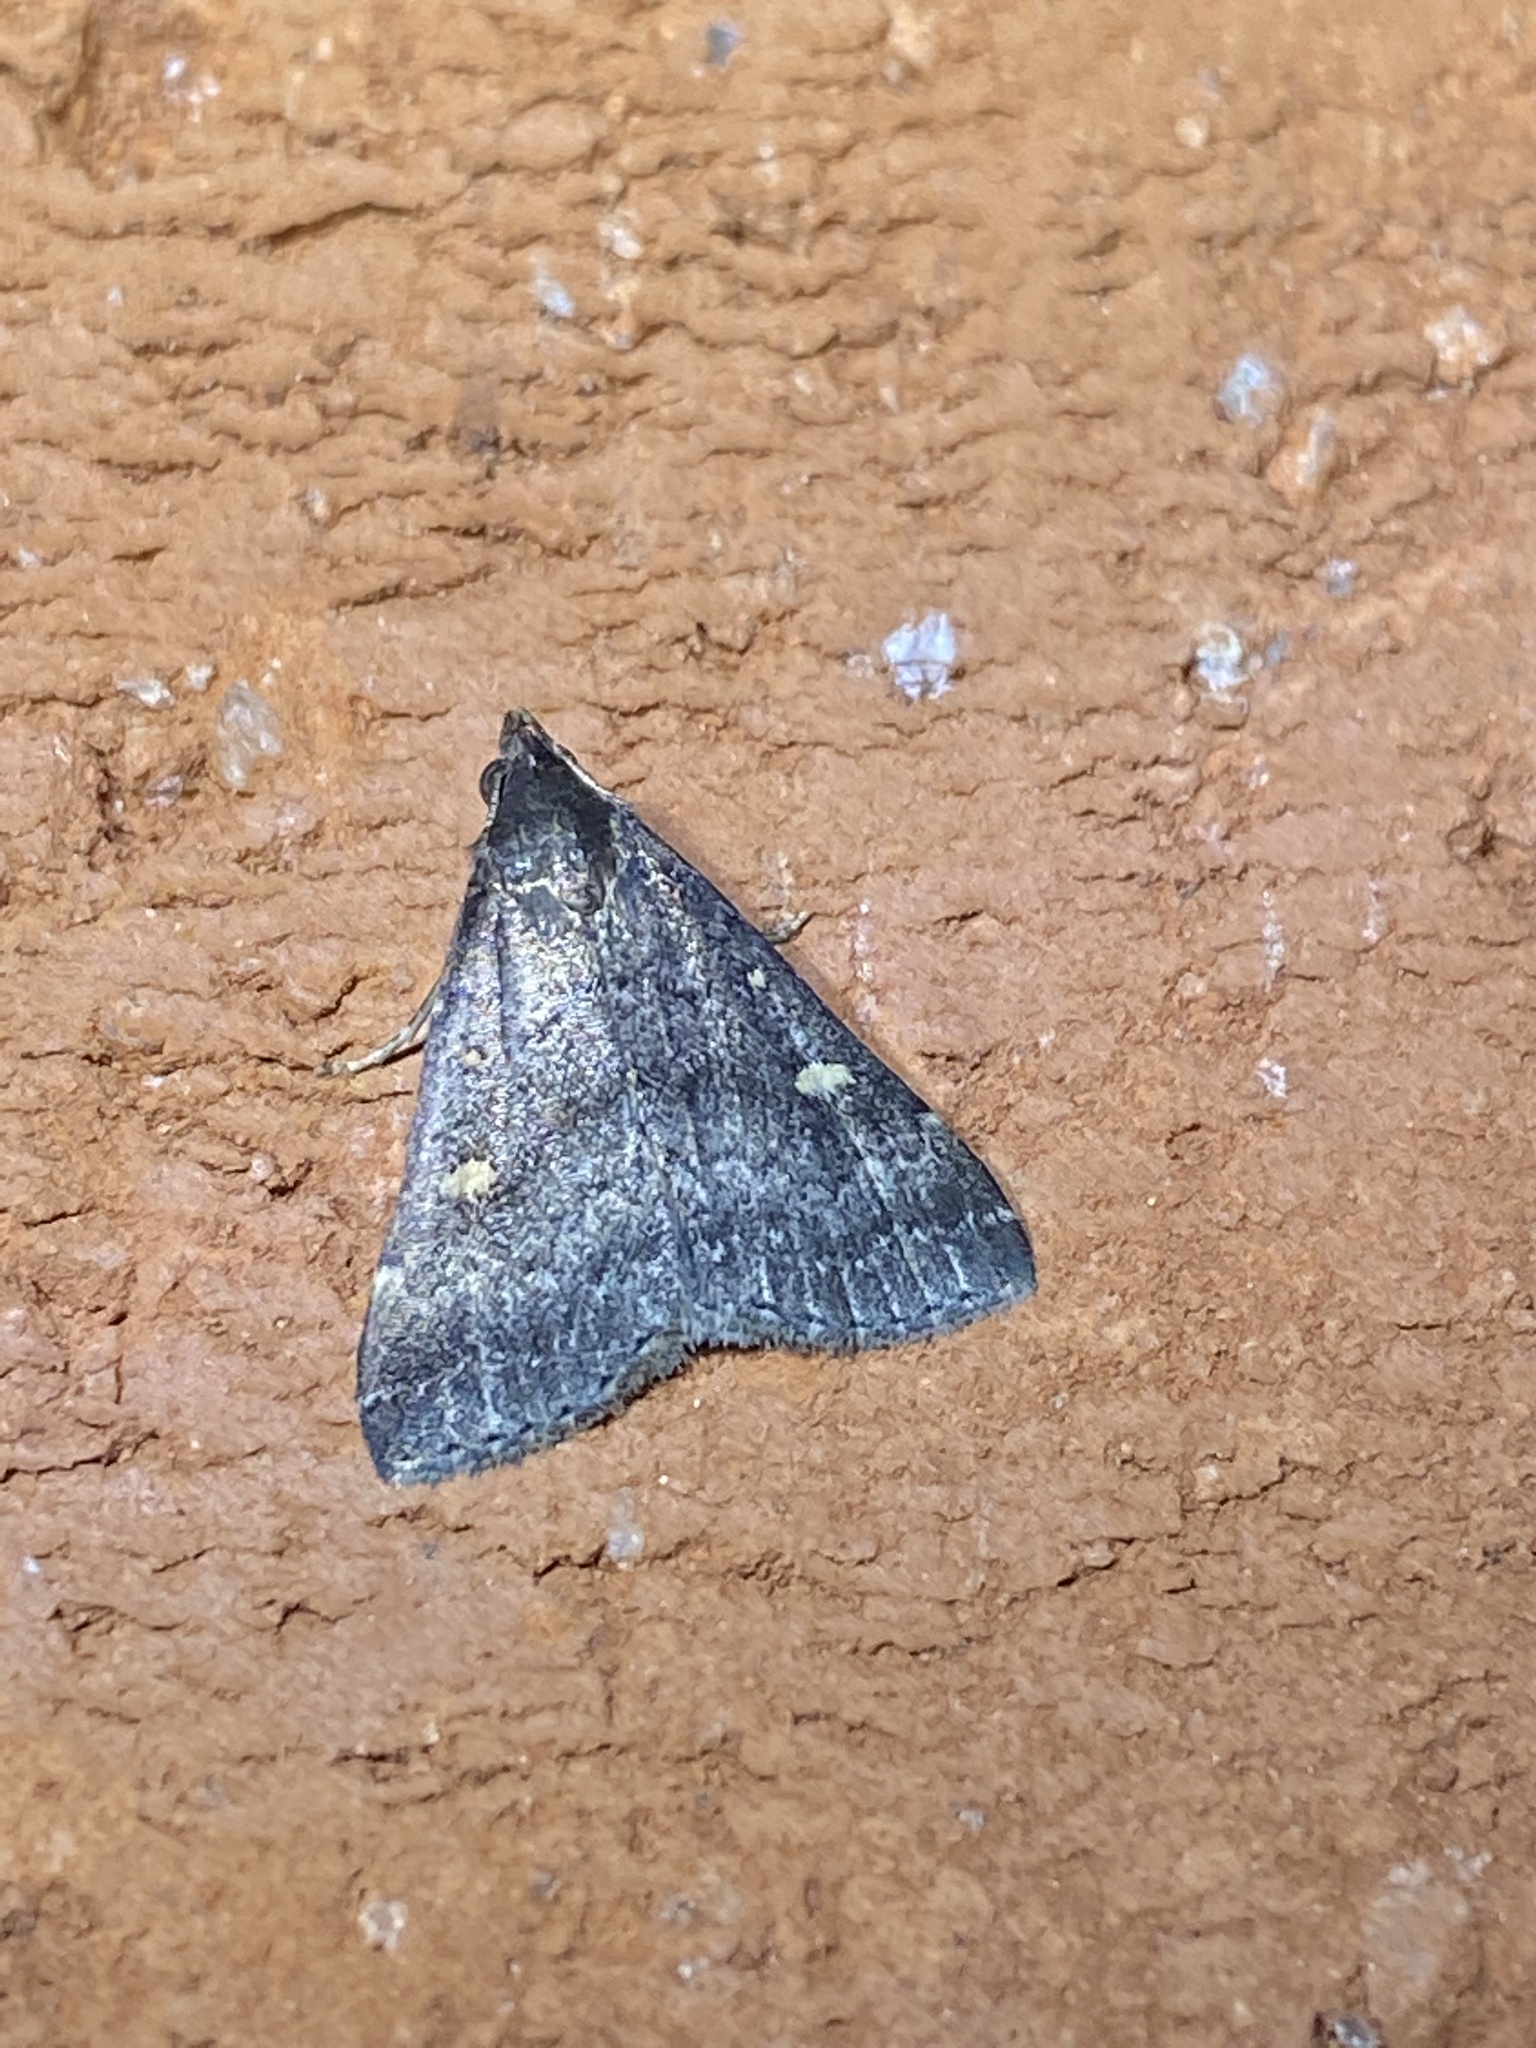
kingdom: Animalia
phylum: Arthropoda
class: Insecta
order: Lepidoptera
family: Erebidae
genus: Tetanolita
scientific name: Tetanolita mynesalis
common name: Smoky tetanolita moth
